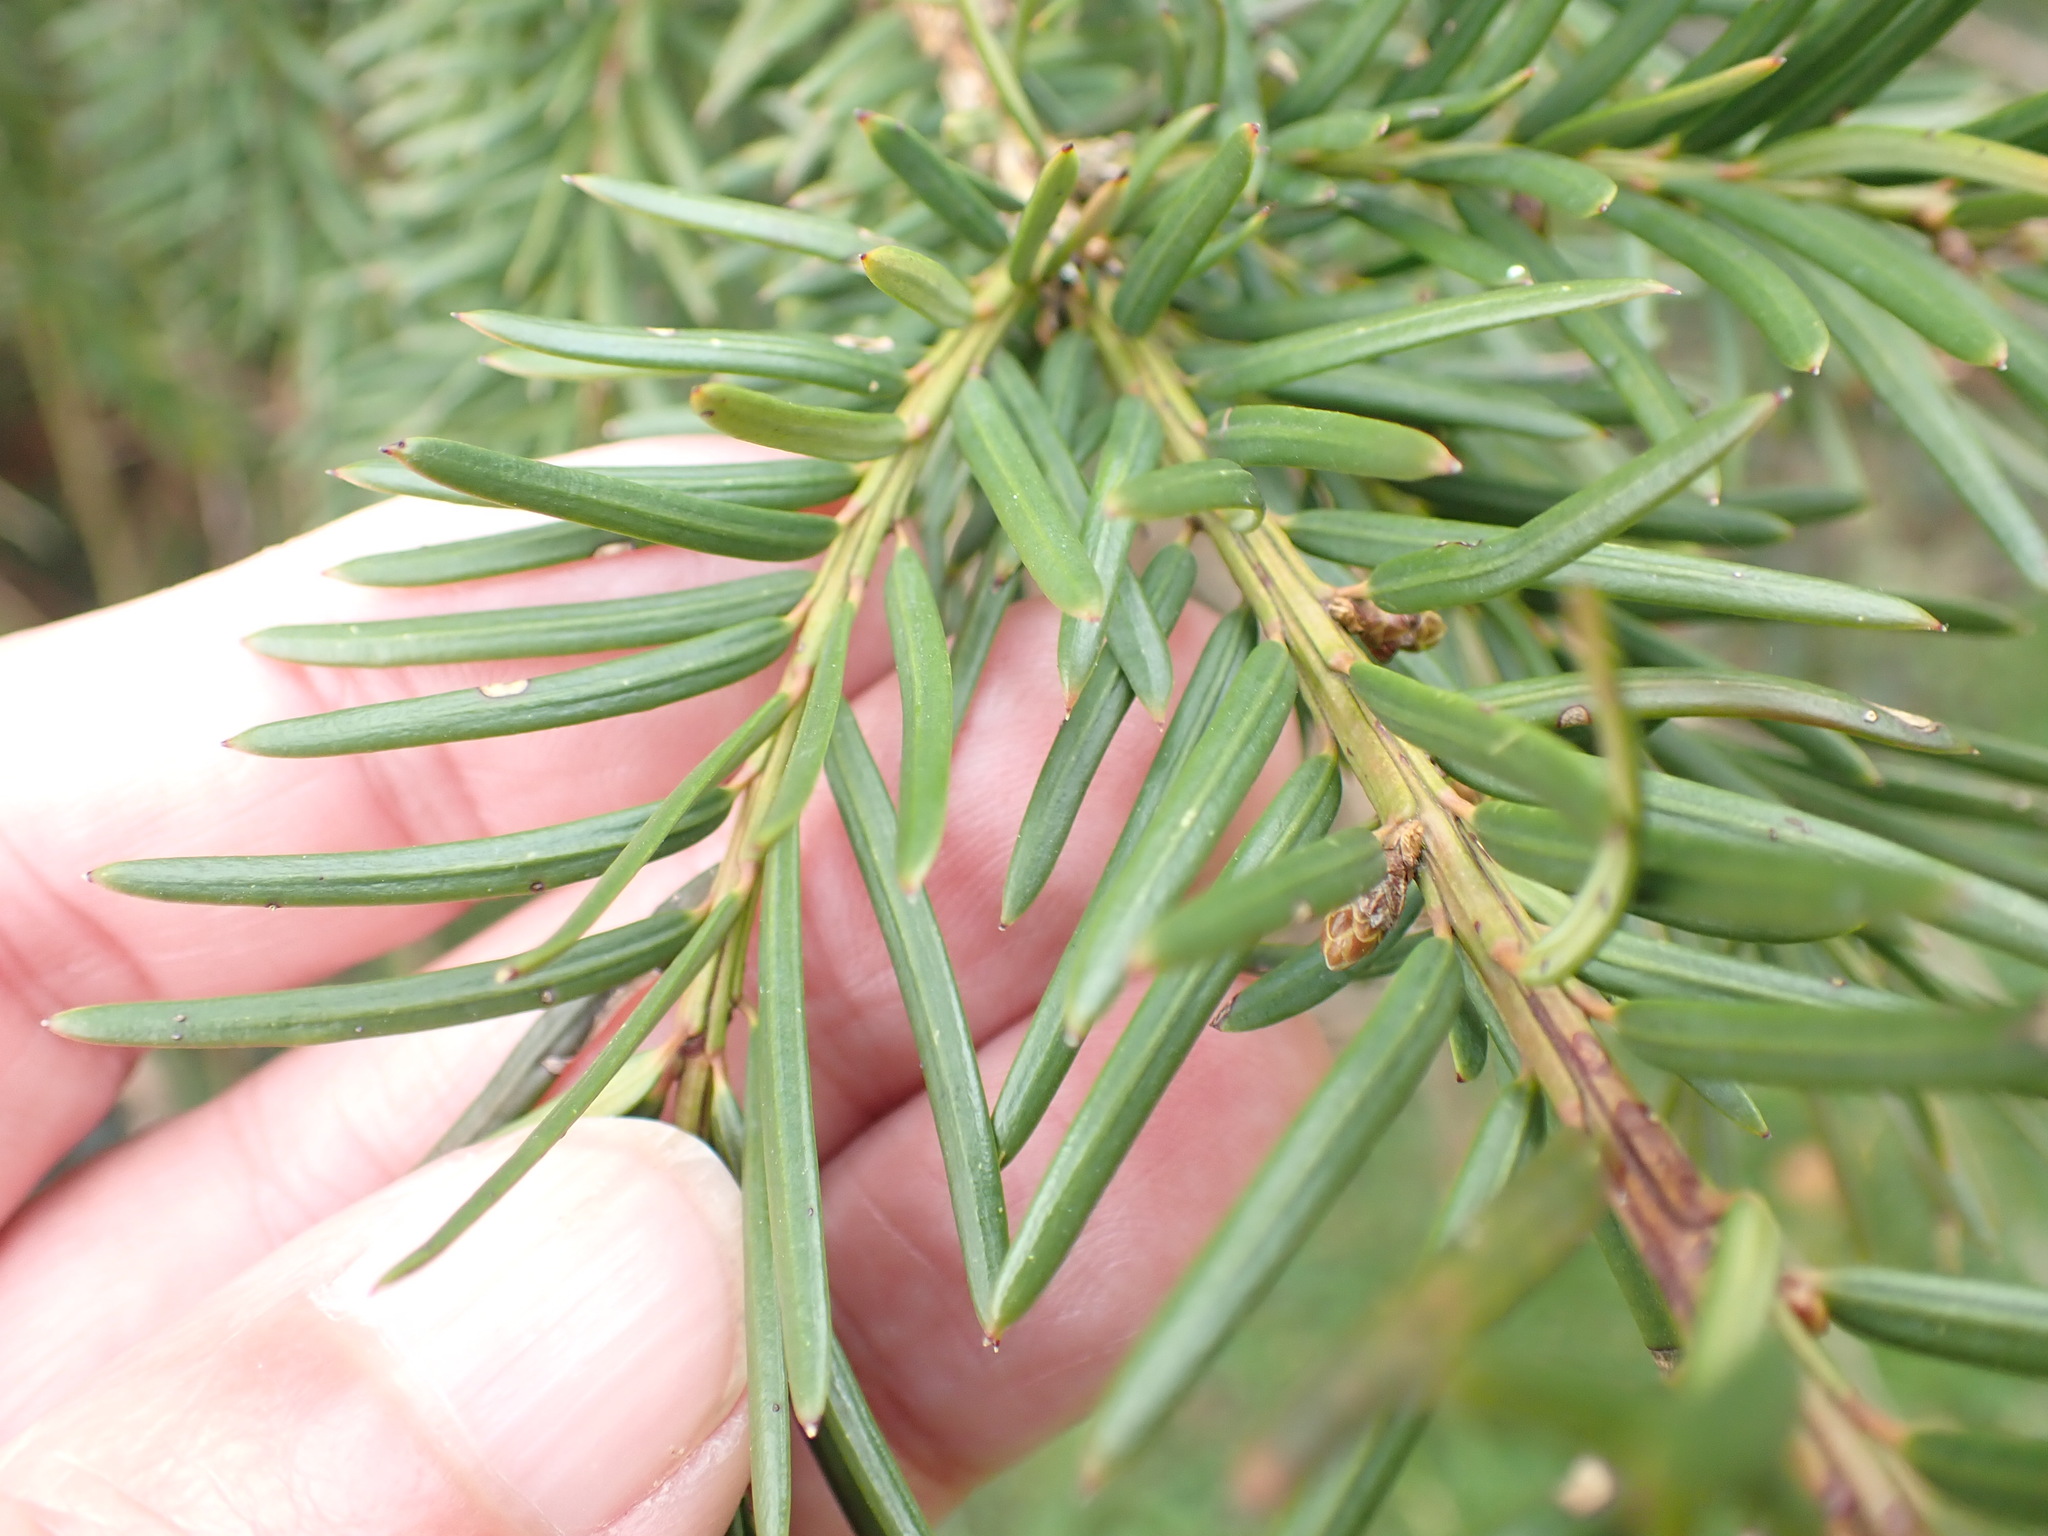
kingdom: Plantae
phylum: Tracheophyta
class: Pinopsida
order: Pinales
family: Taxaceae
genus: Taxus
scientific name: Taxus baccata
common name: Yew
